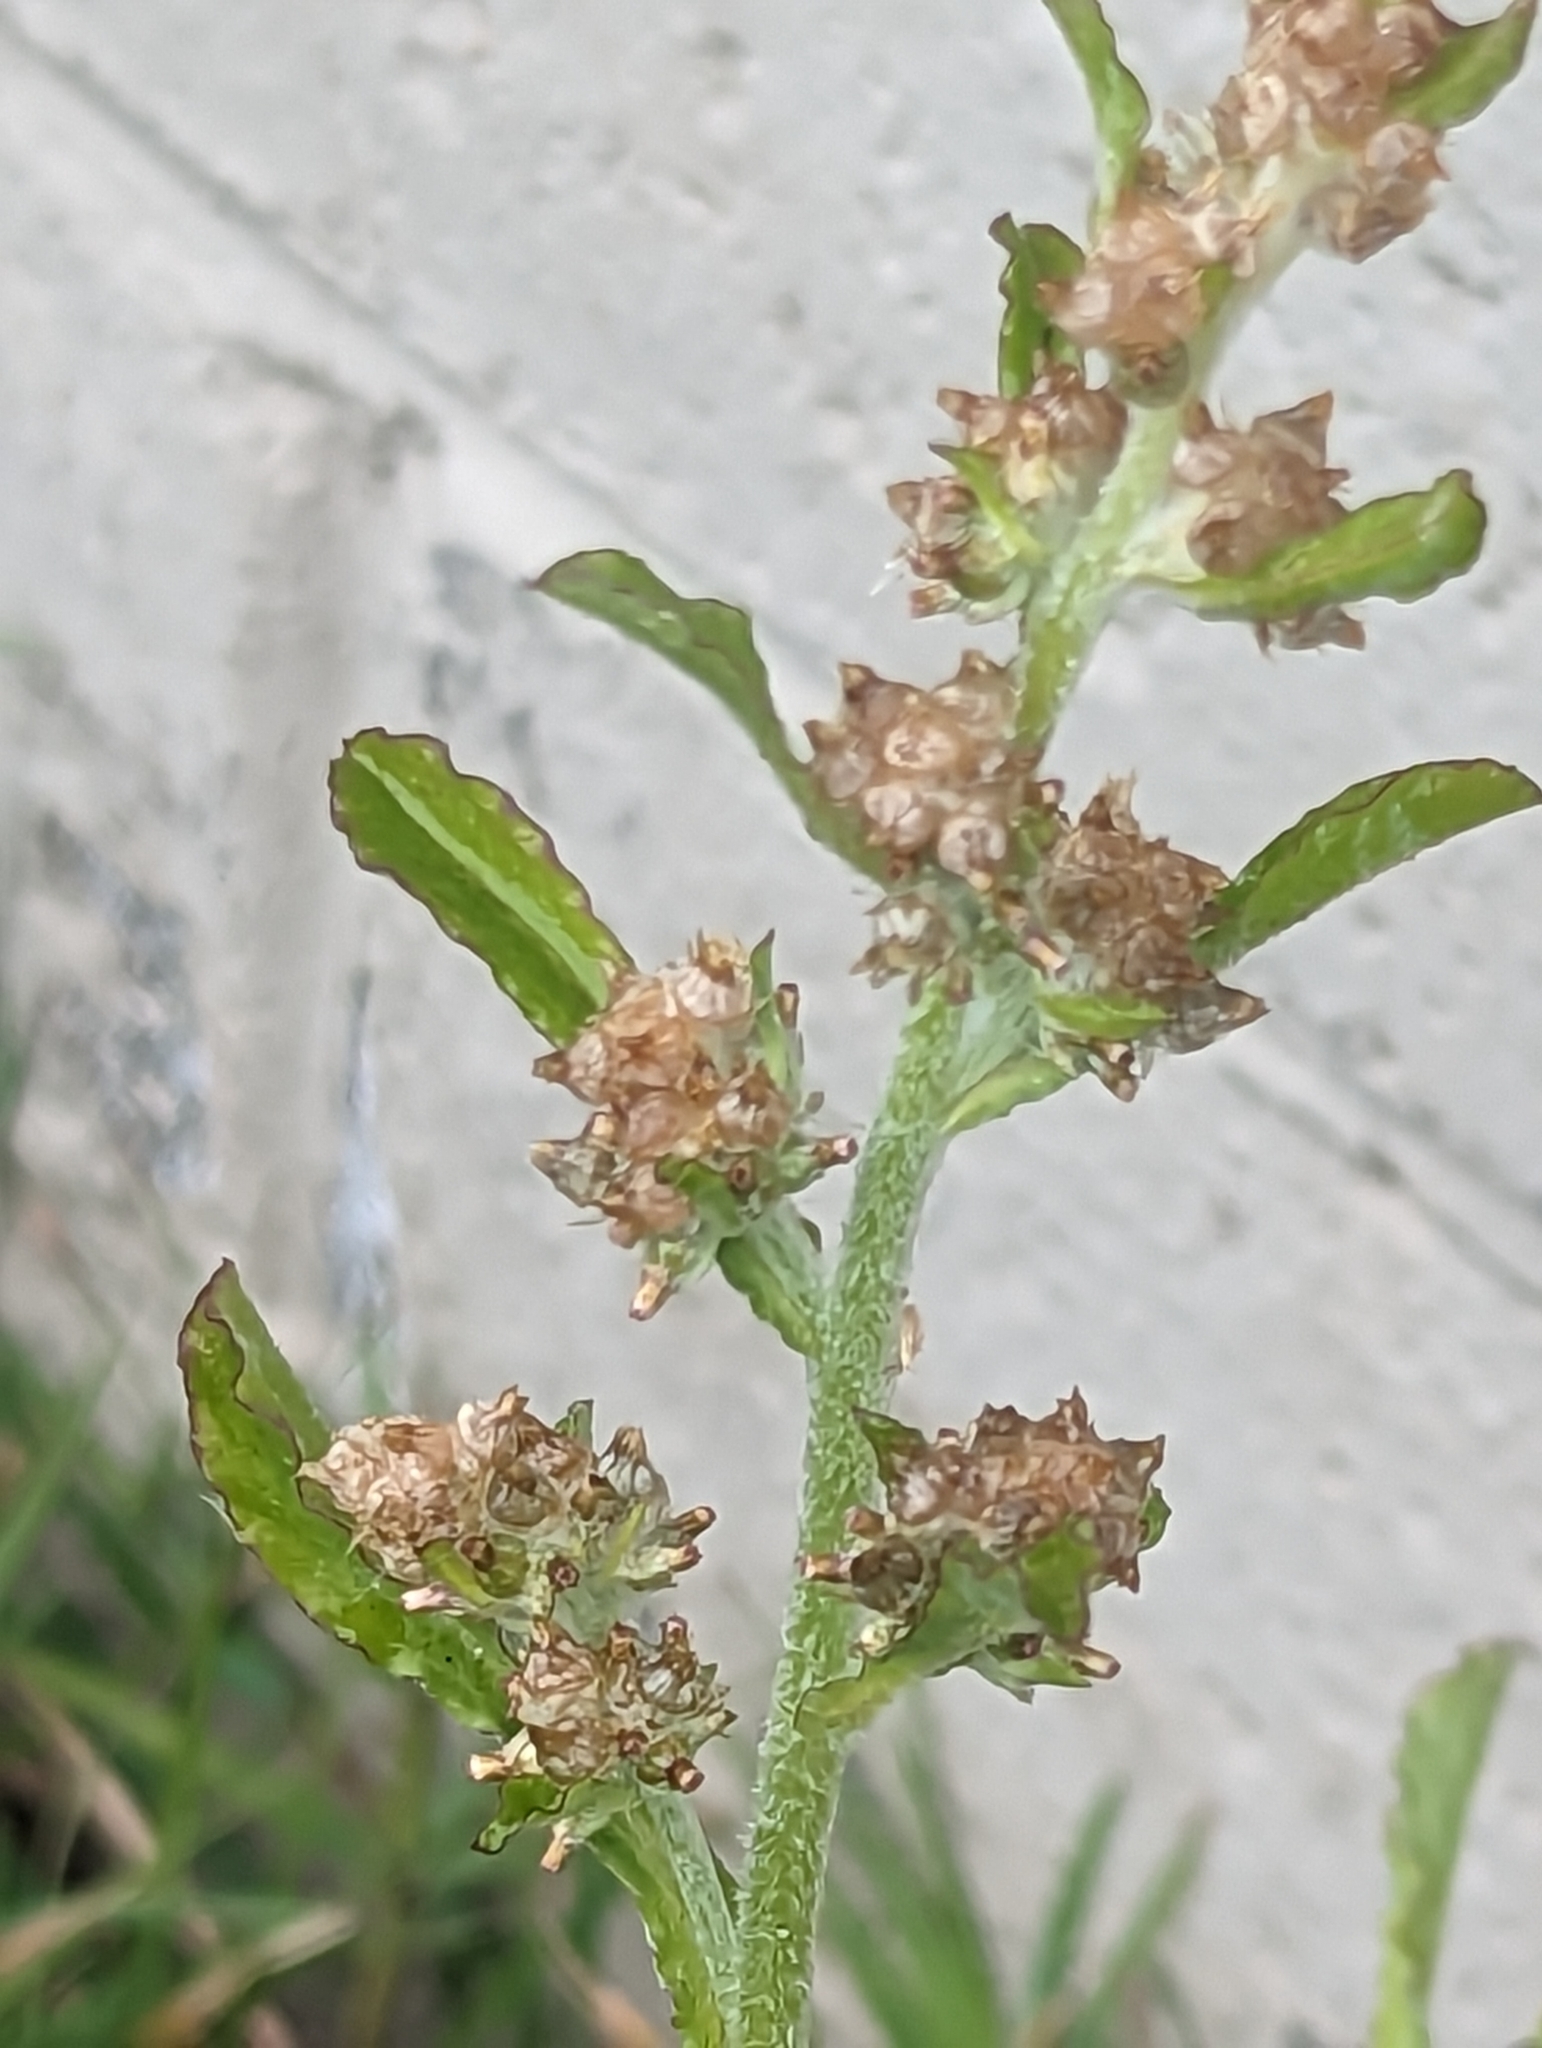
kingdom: Plantae
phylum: Tracheophyta
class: Magnoliopsida
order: Asterales
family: Asteraceae
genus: Gamochaeta
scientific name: Gamochaeta pensylvanica
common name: Pennsylvania everlasting
